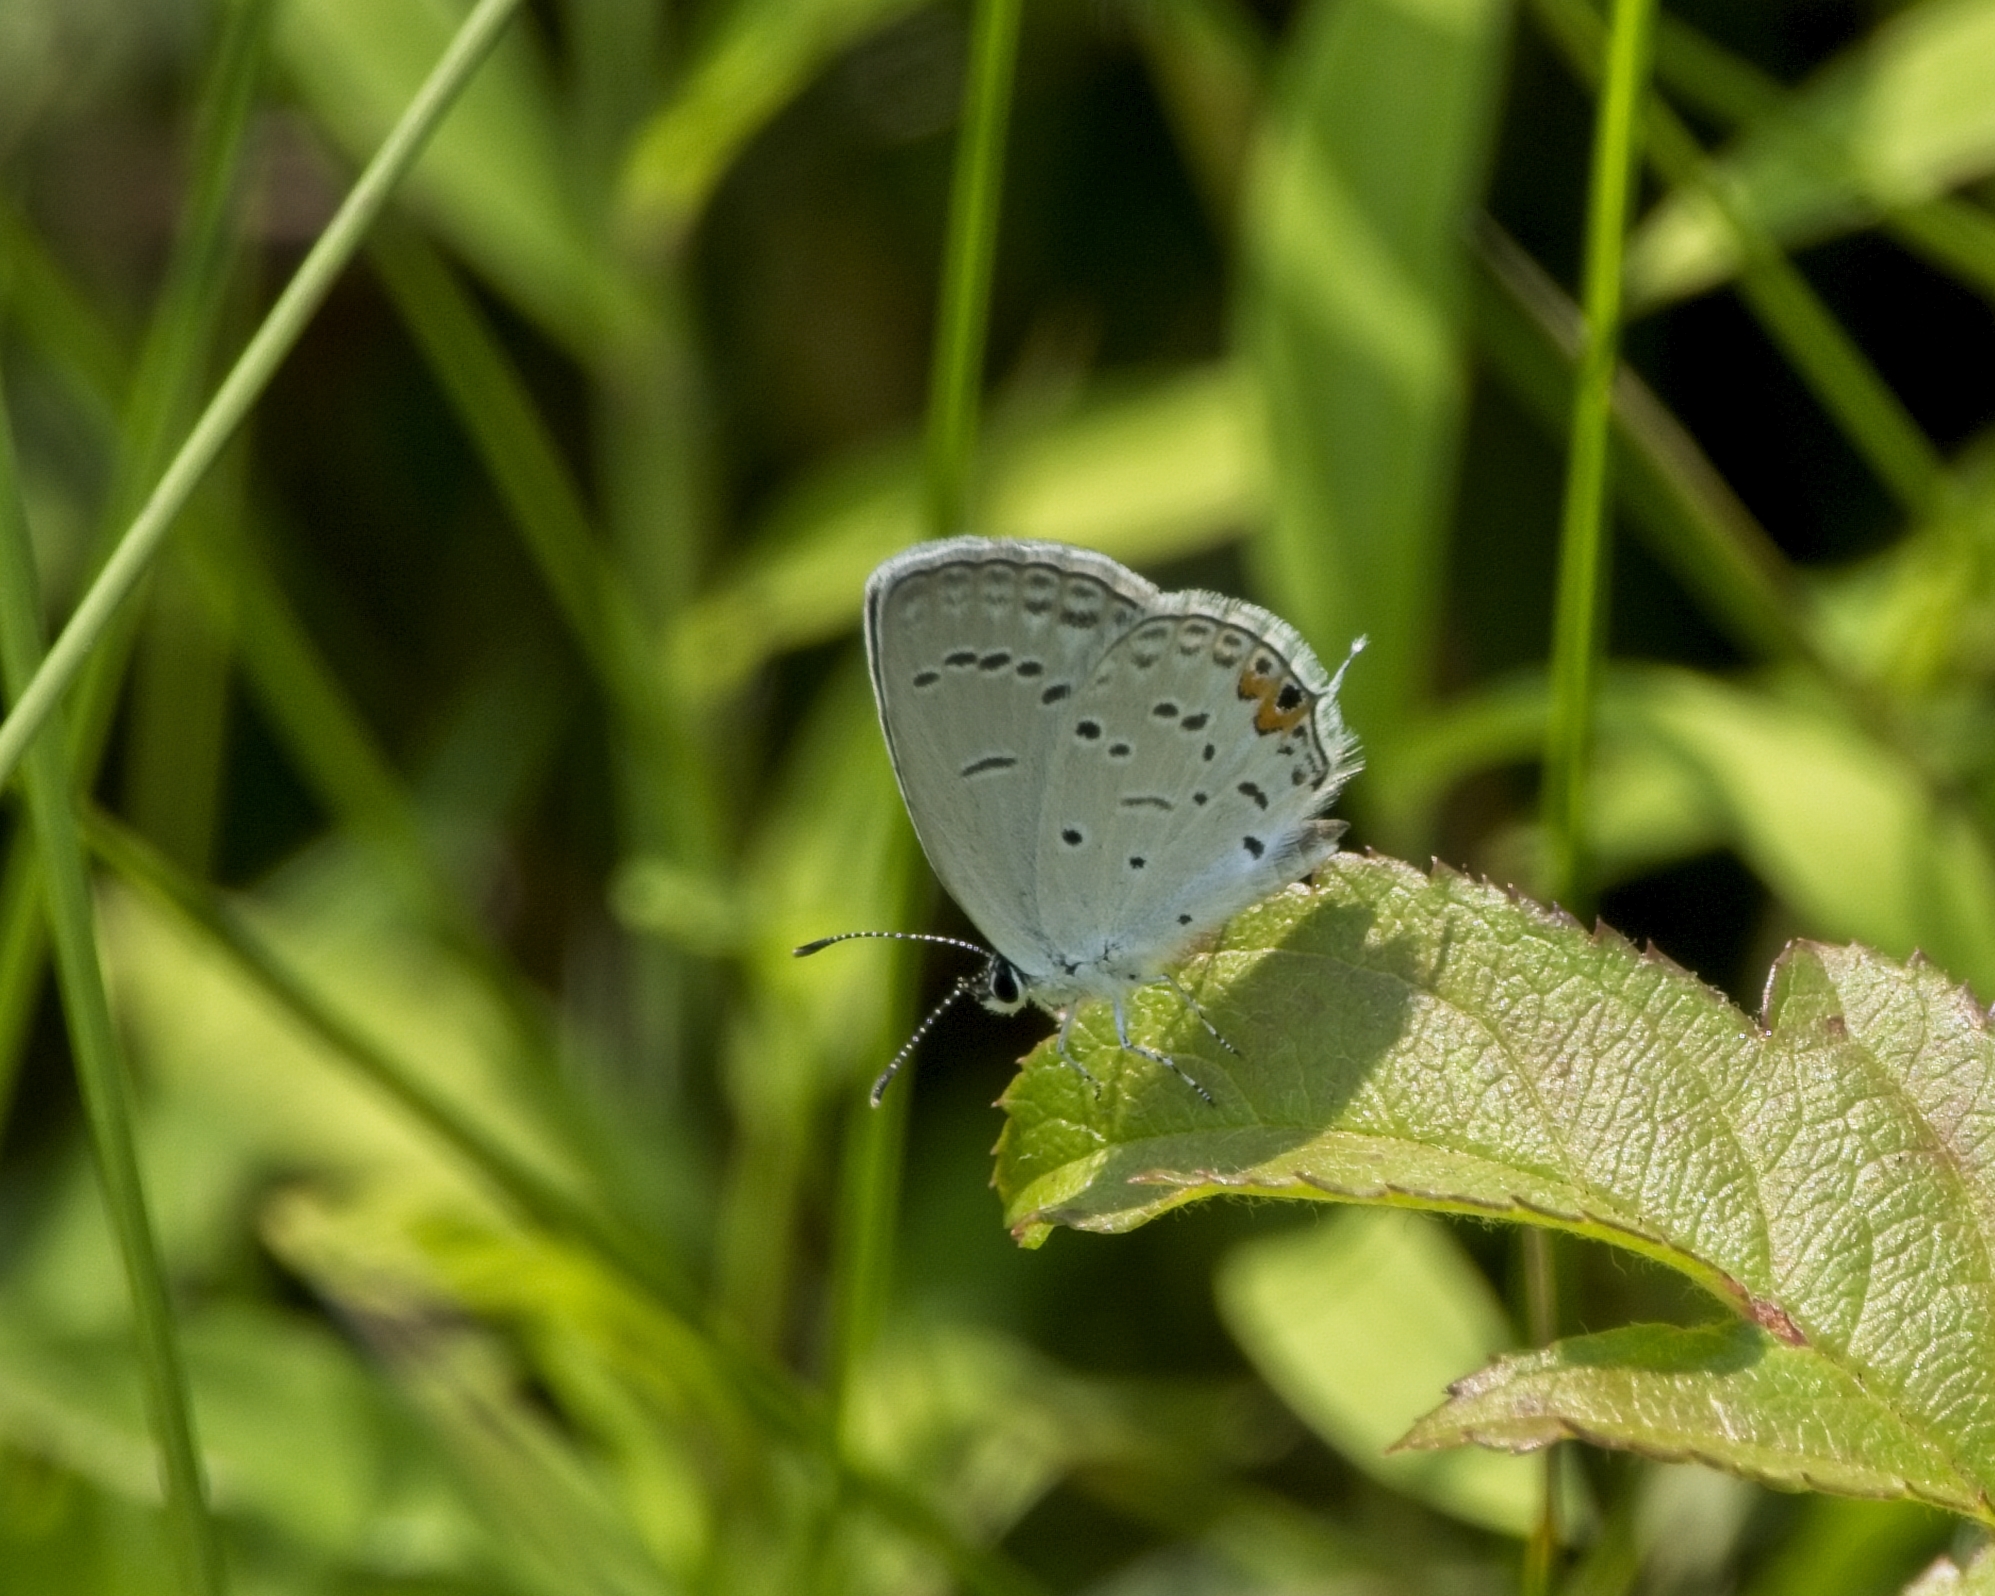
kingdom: Animalia
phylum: Arthropoda
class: Insecta
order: Lepidoptera
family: Lycaenidae
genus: Elkalyce
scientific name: Elkalyce comyntas
